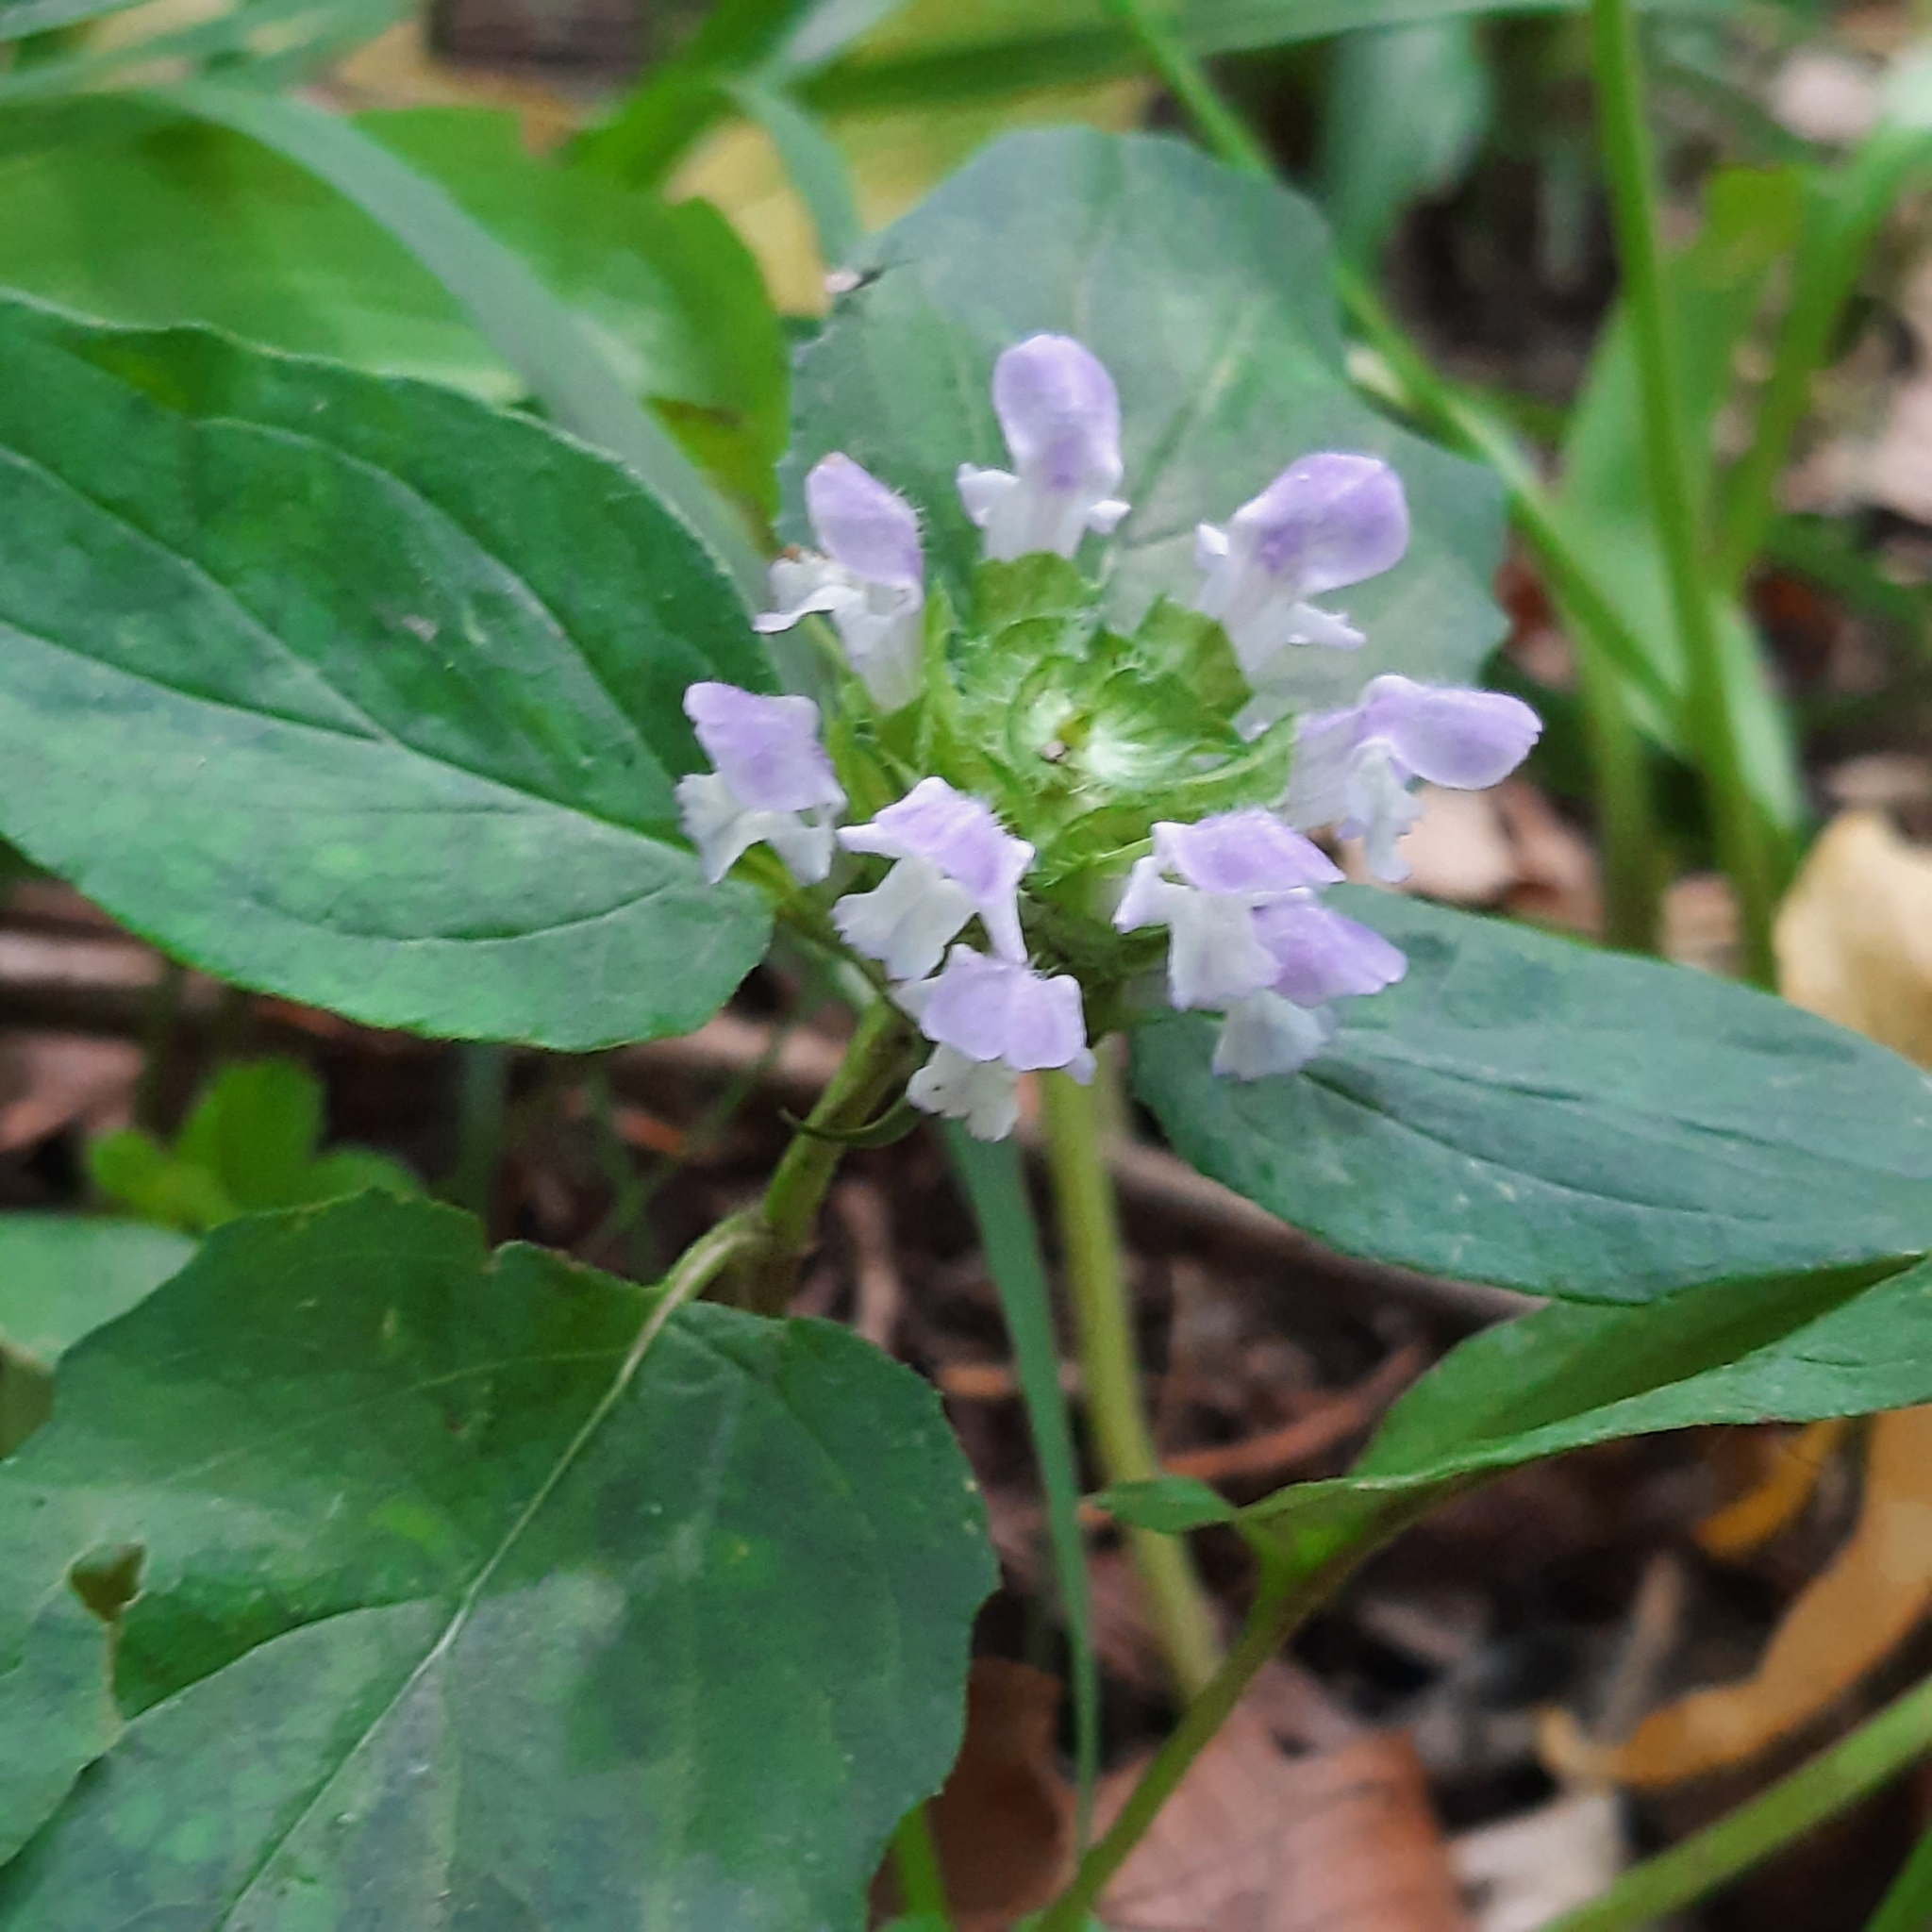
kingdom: Plantae
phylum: Tracheophyta
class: Magnoliopsida
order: Lamiales
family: Lamiaceae
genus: Prunella
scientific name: Prunella vulgaris
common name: Heal-all
